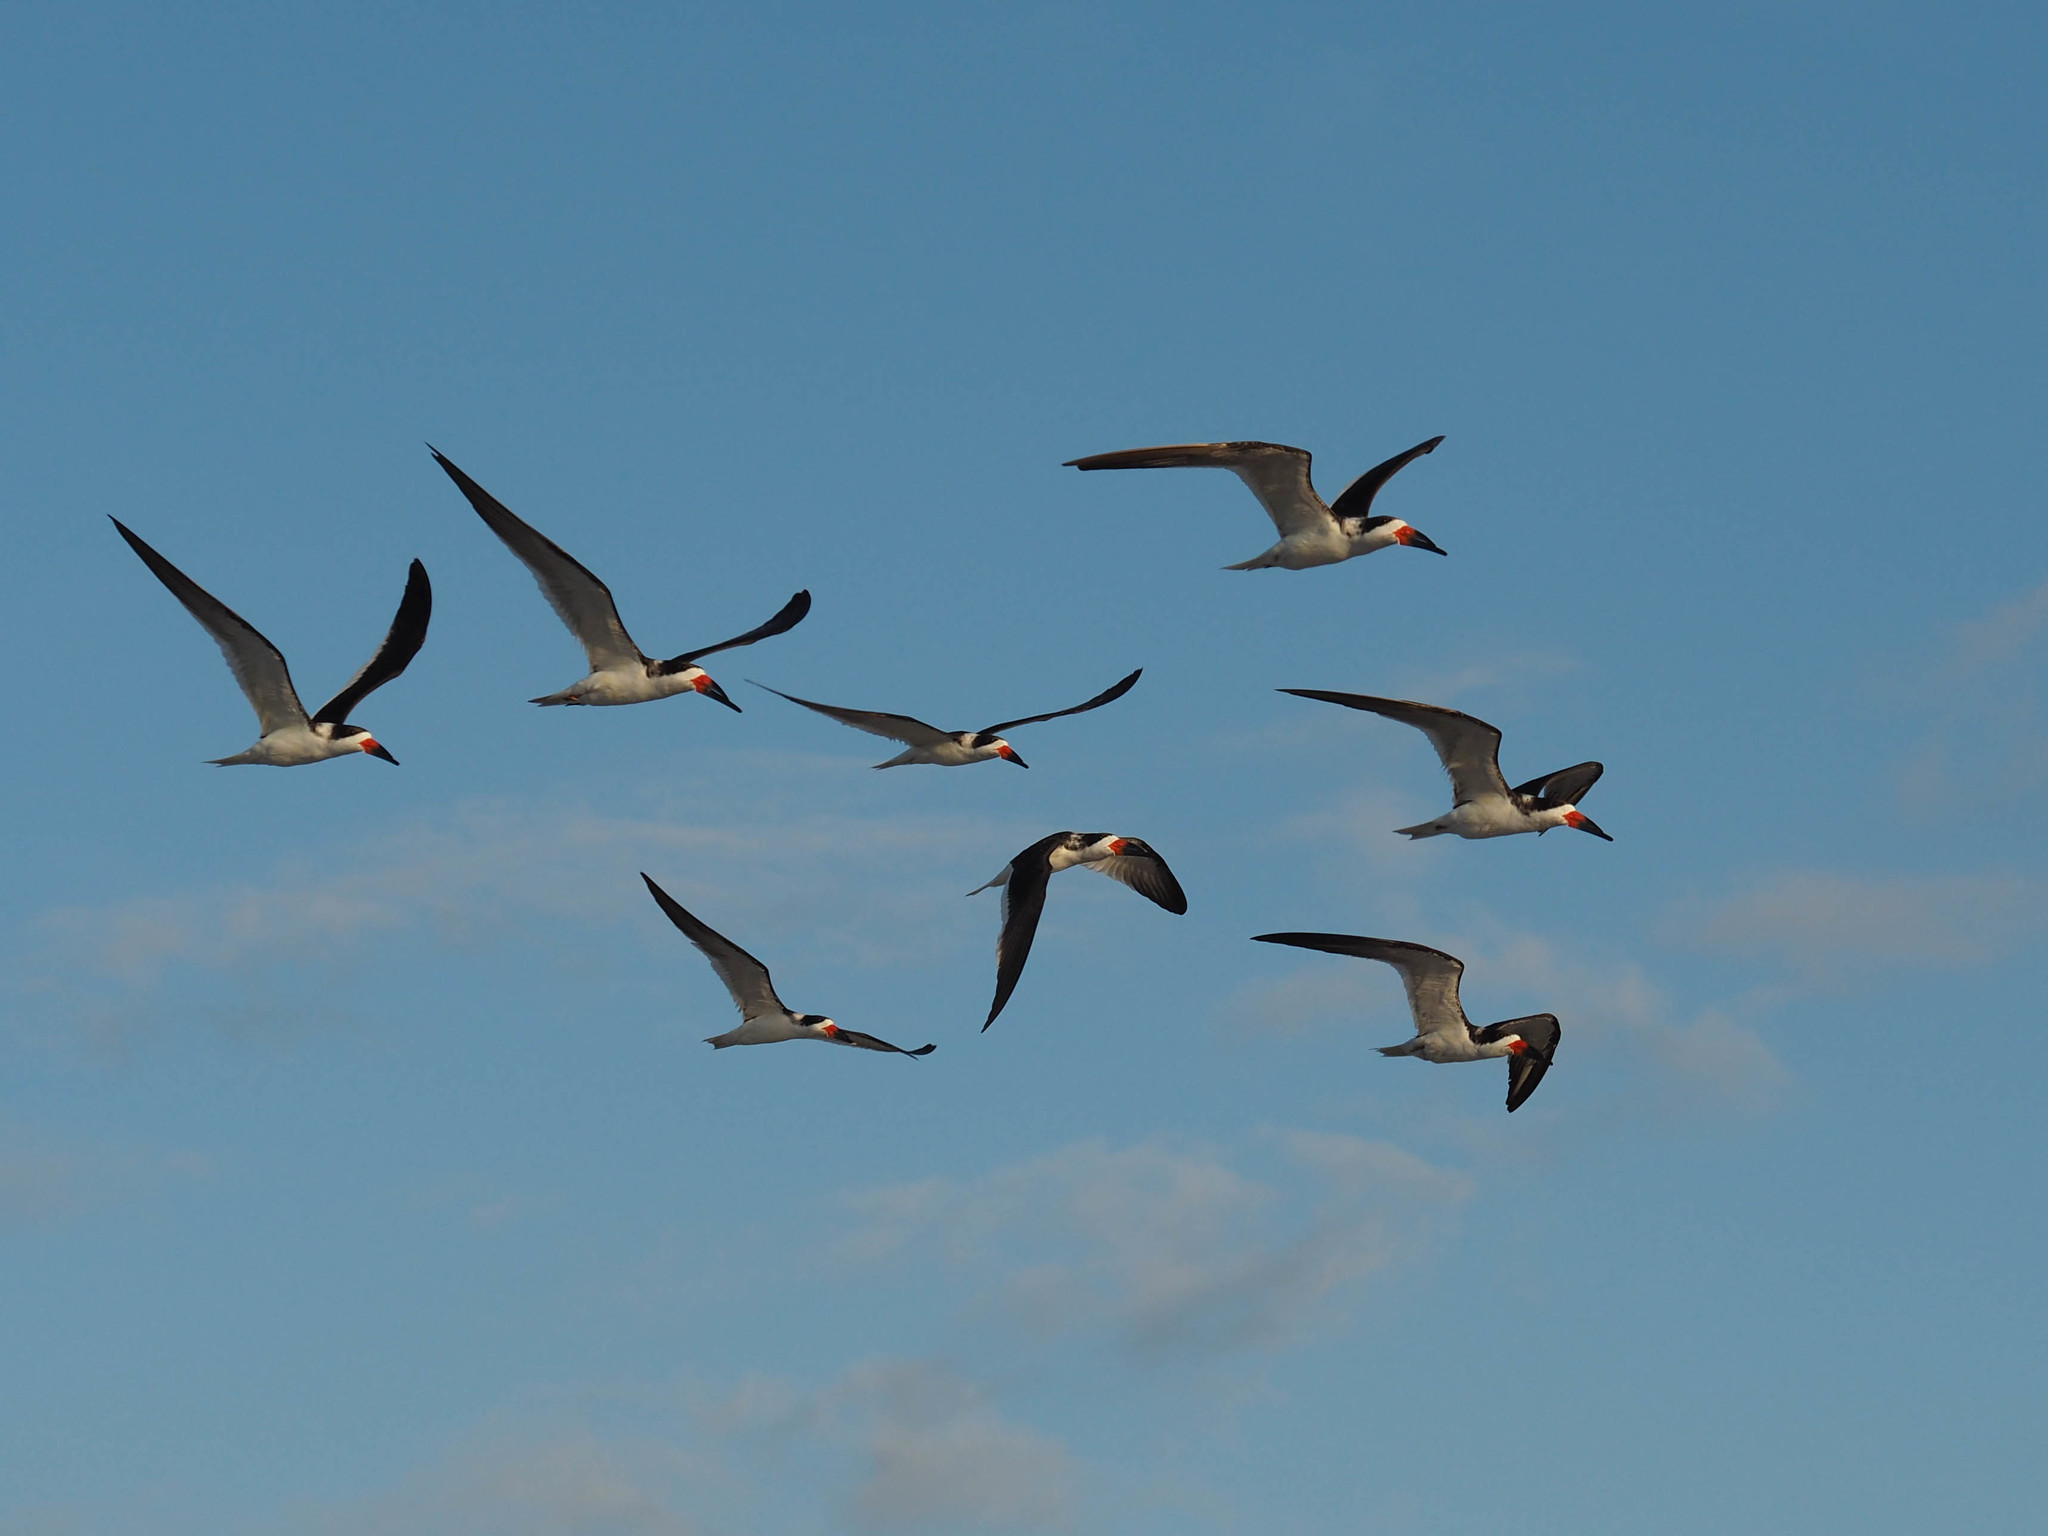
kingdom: Animalia
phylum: Chordata
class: Aves
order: Charadriiformes
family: Laridae
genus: Rynchops
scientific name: Rynchops niger
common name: Black skimmer
